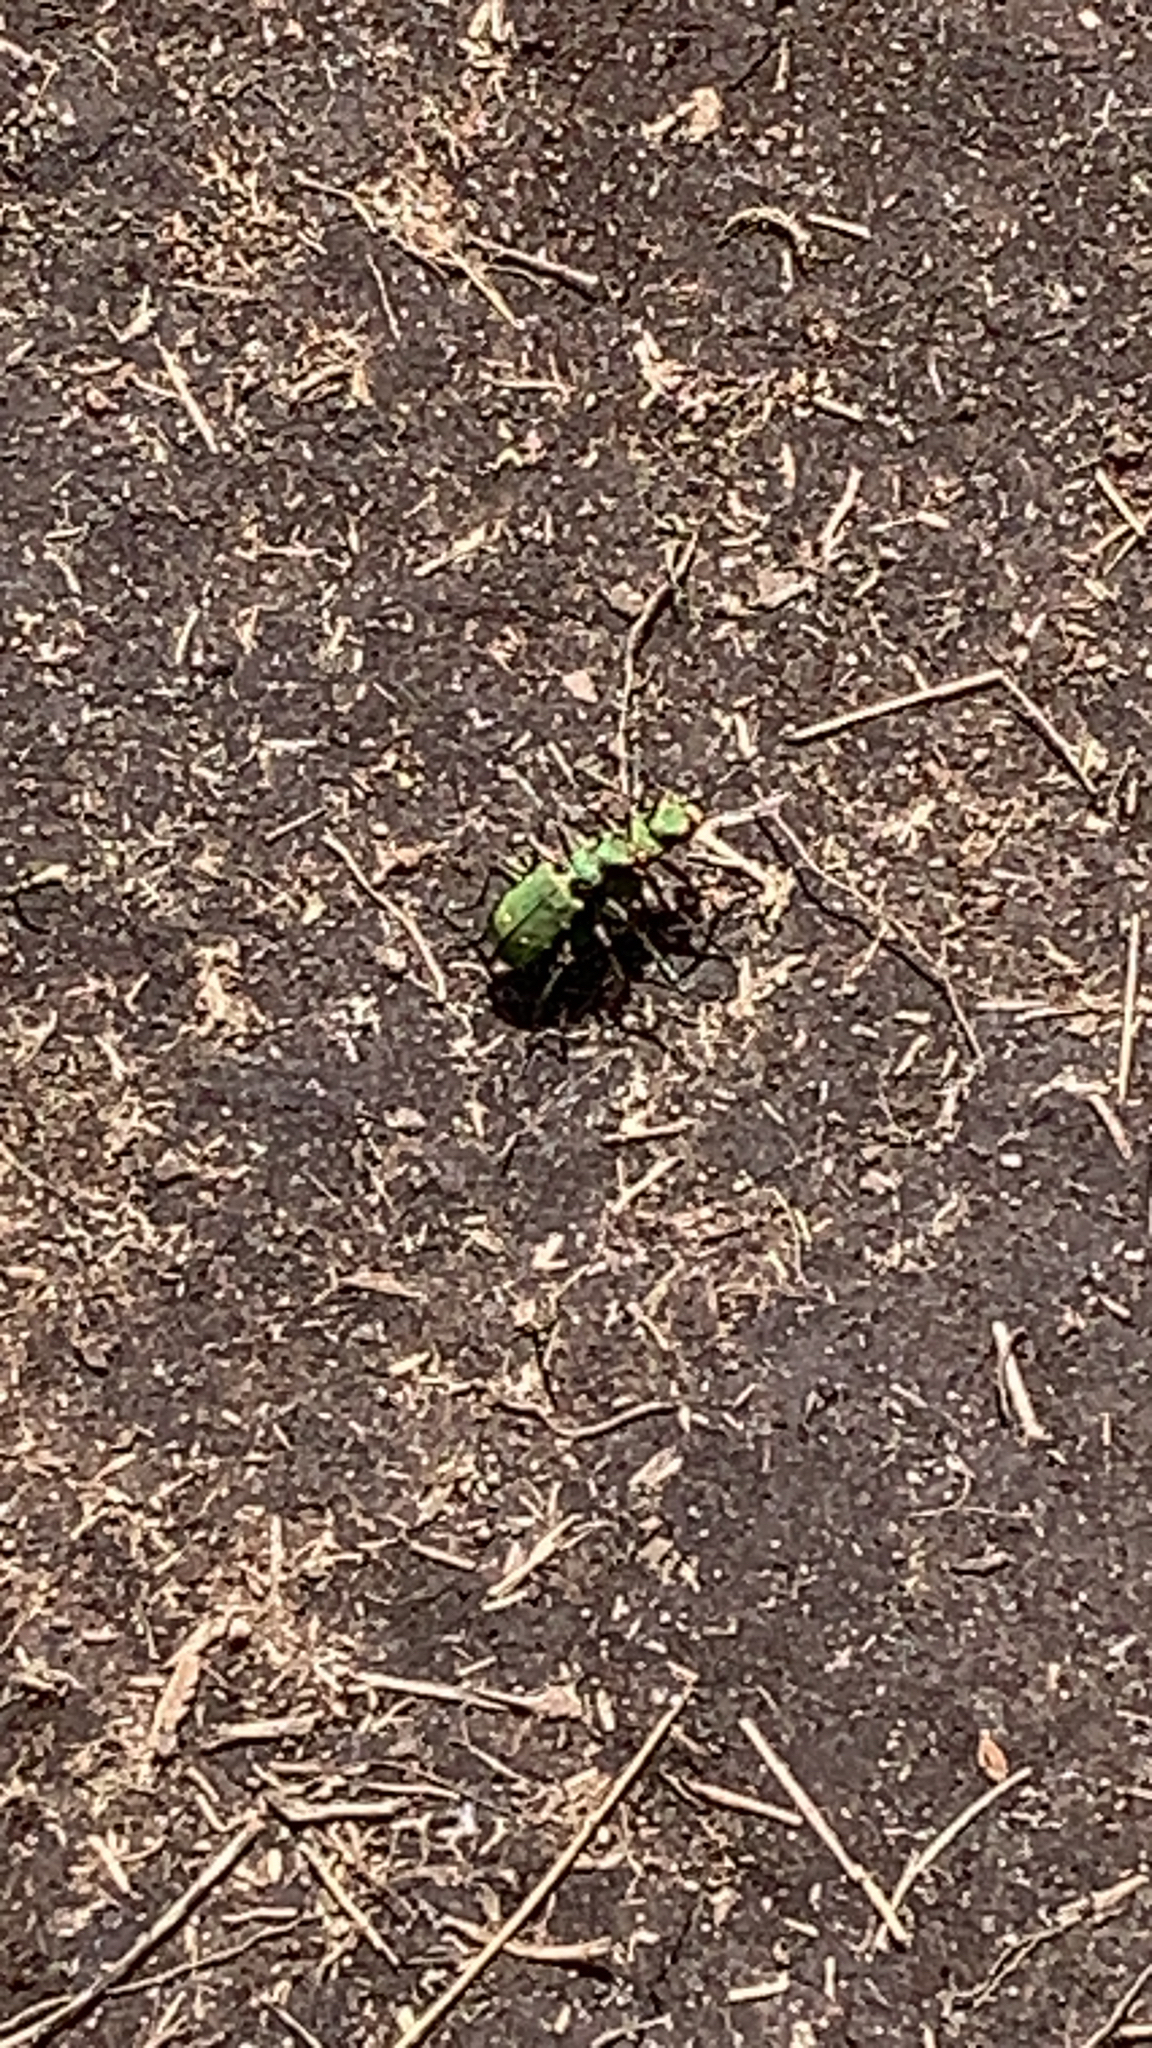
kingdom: Animalia
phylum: Arthropoda
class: Insecta
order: Coleoptera
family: Carabidae
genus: Cicindela
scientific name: Cicindela campestris
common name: Common tiger beetle
